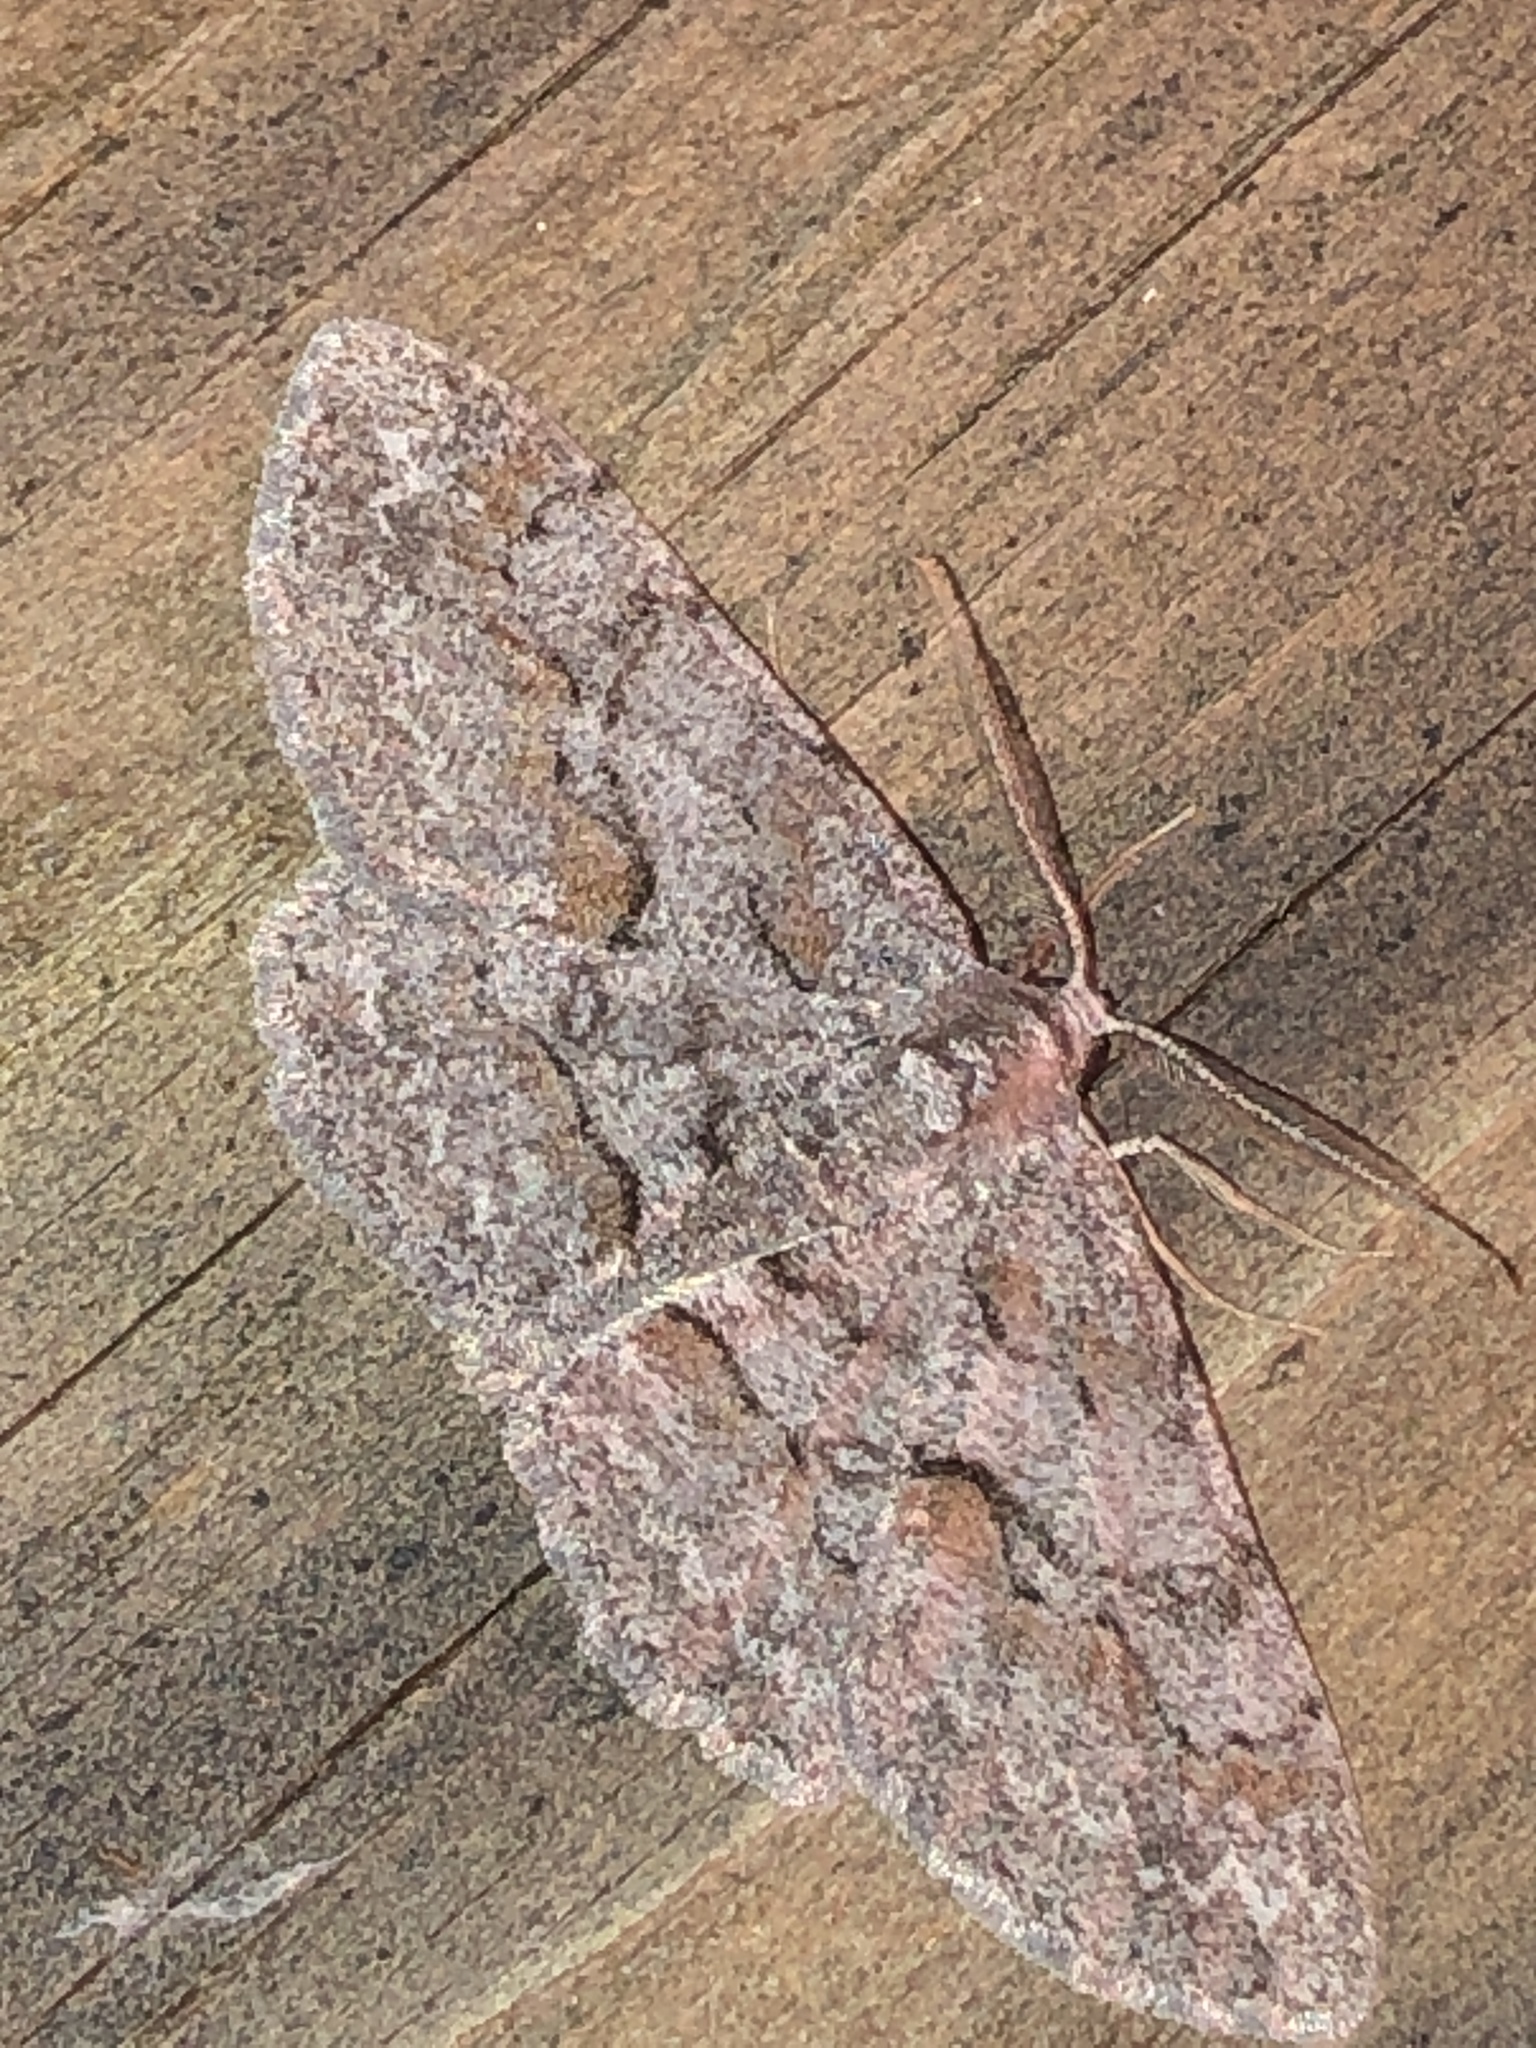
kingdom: Animalia
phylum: Arthropoda
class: Insecta
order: Lepidoptera
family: Geometridae
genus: Iridopsis
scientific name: Iridopsis vellivolata
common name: Large purplish gray
